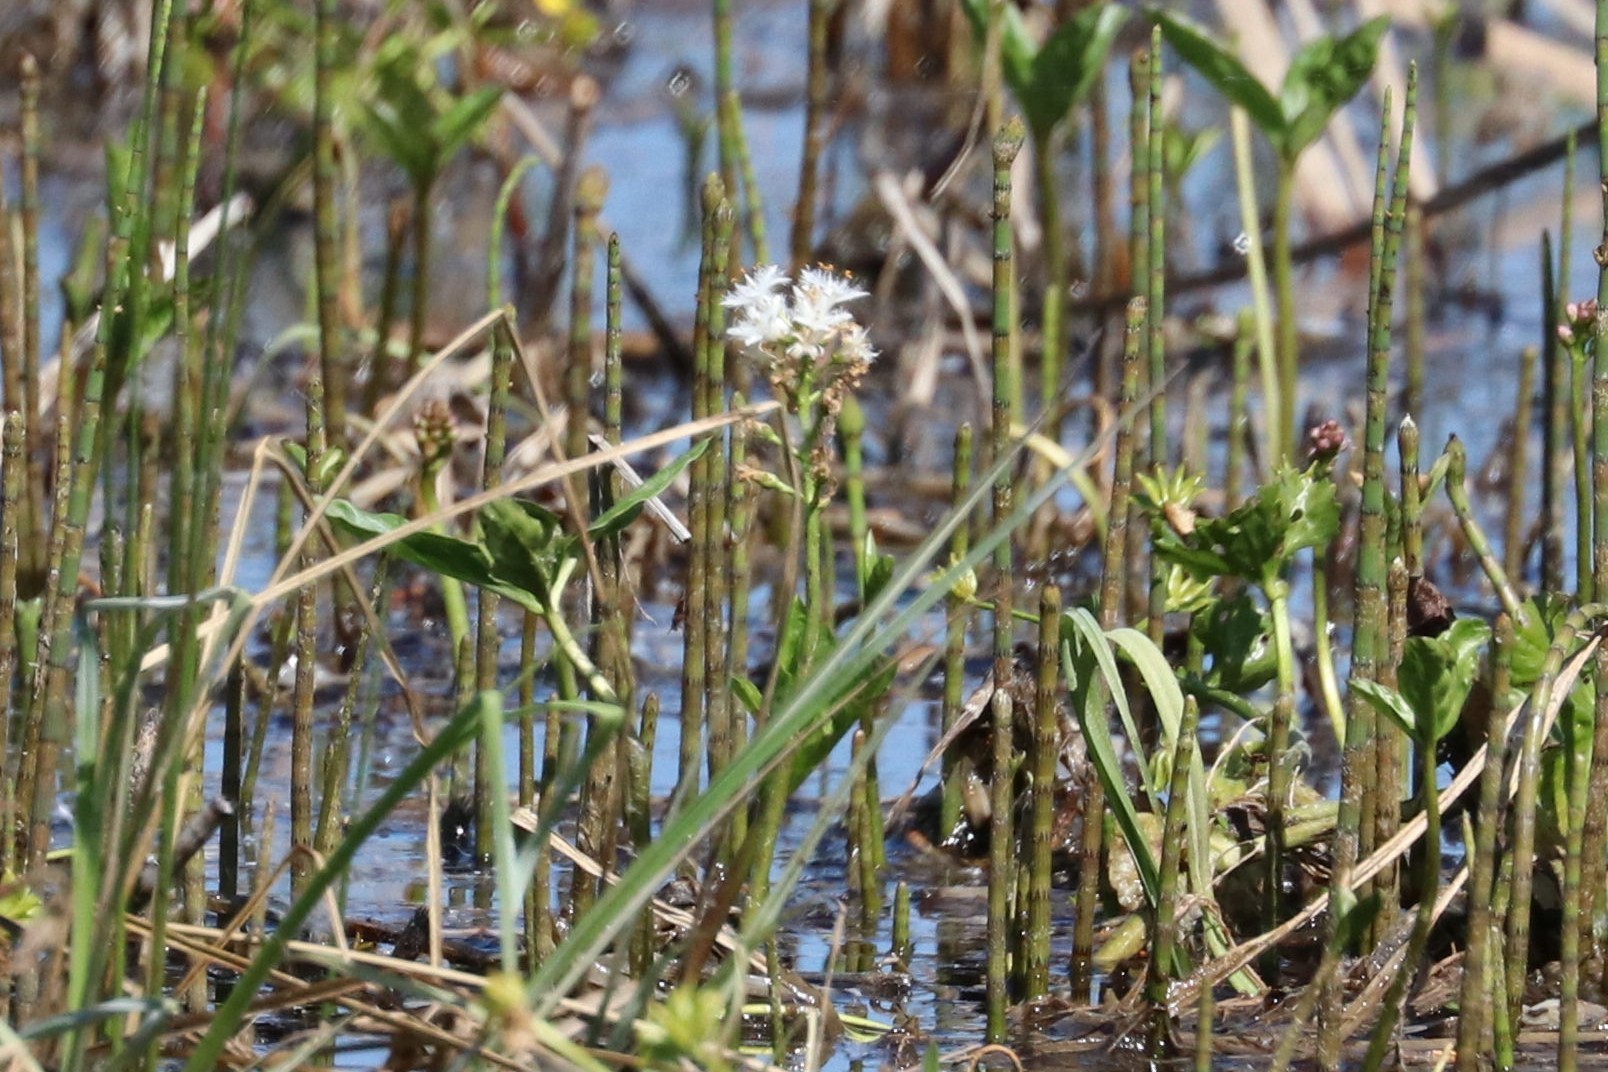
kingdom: Plantae
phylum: Tracheophyta
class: Magnoliopsida
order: Asterales
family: Menyanthaceae
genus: Menyanthes
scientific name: Menyanthes trifoliata
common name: Bogbean
